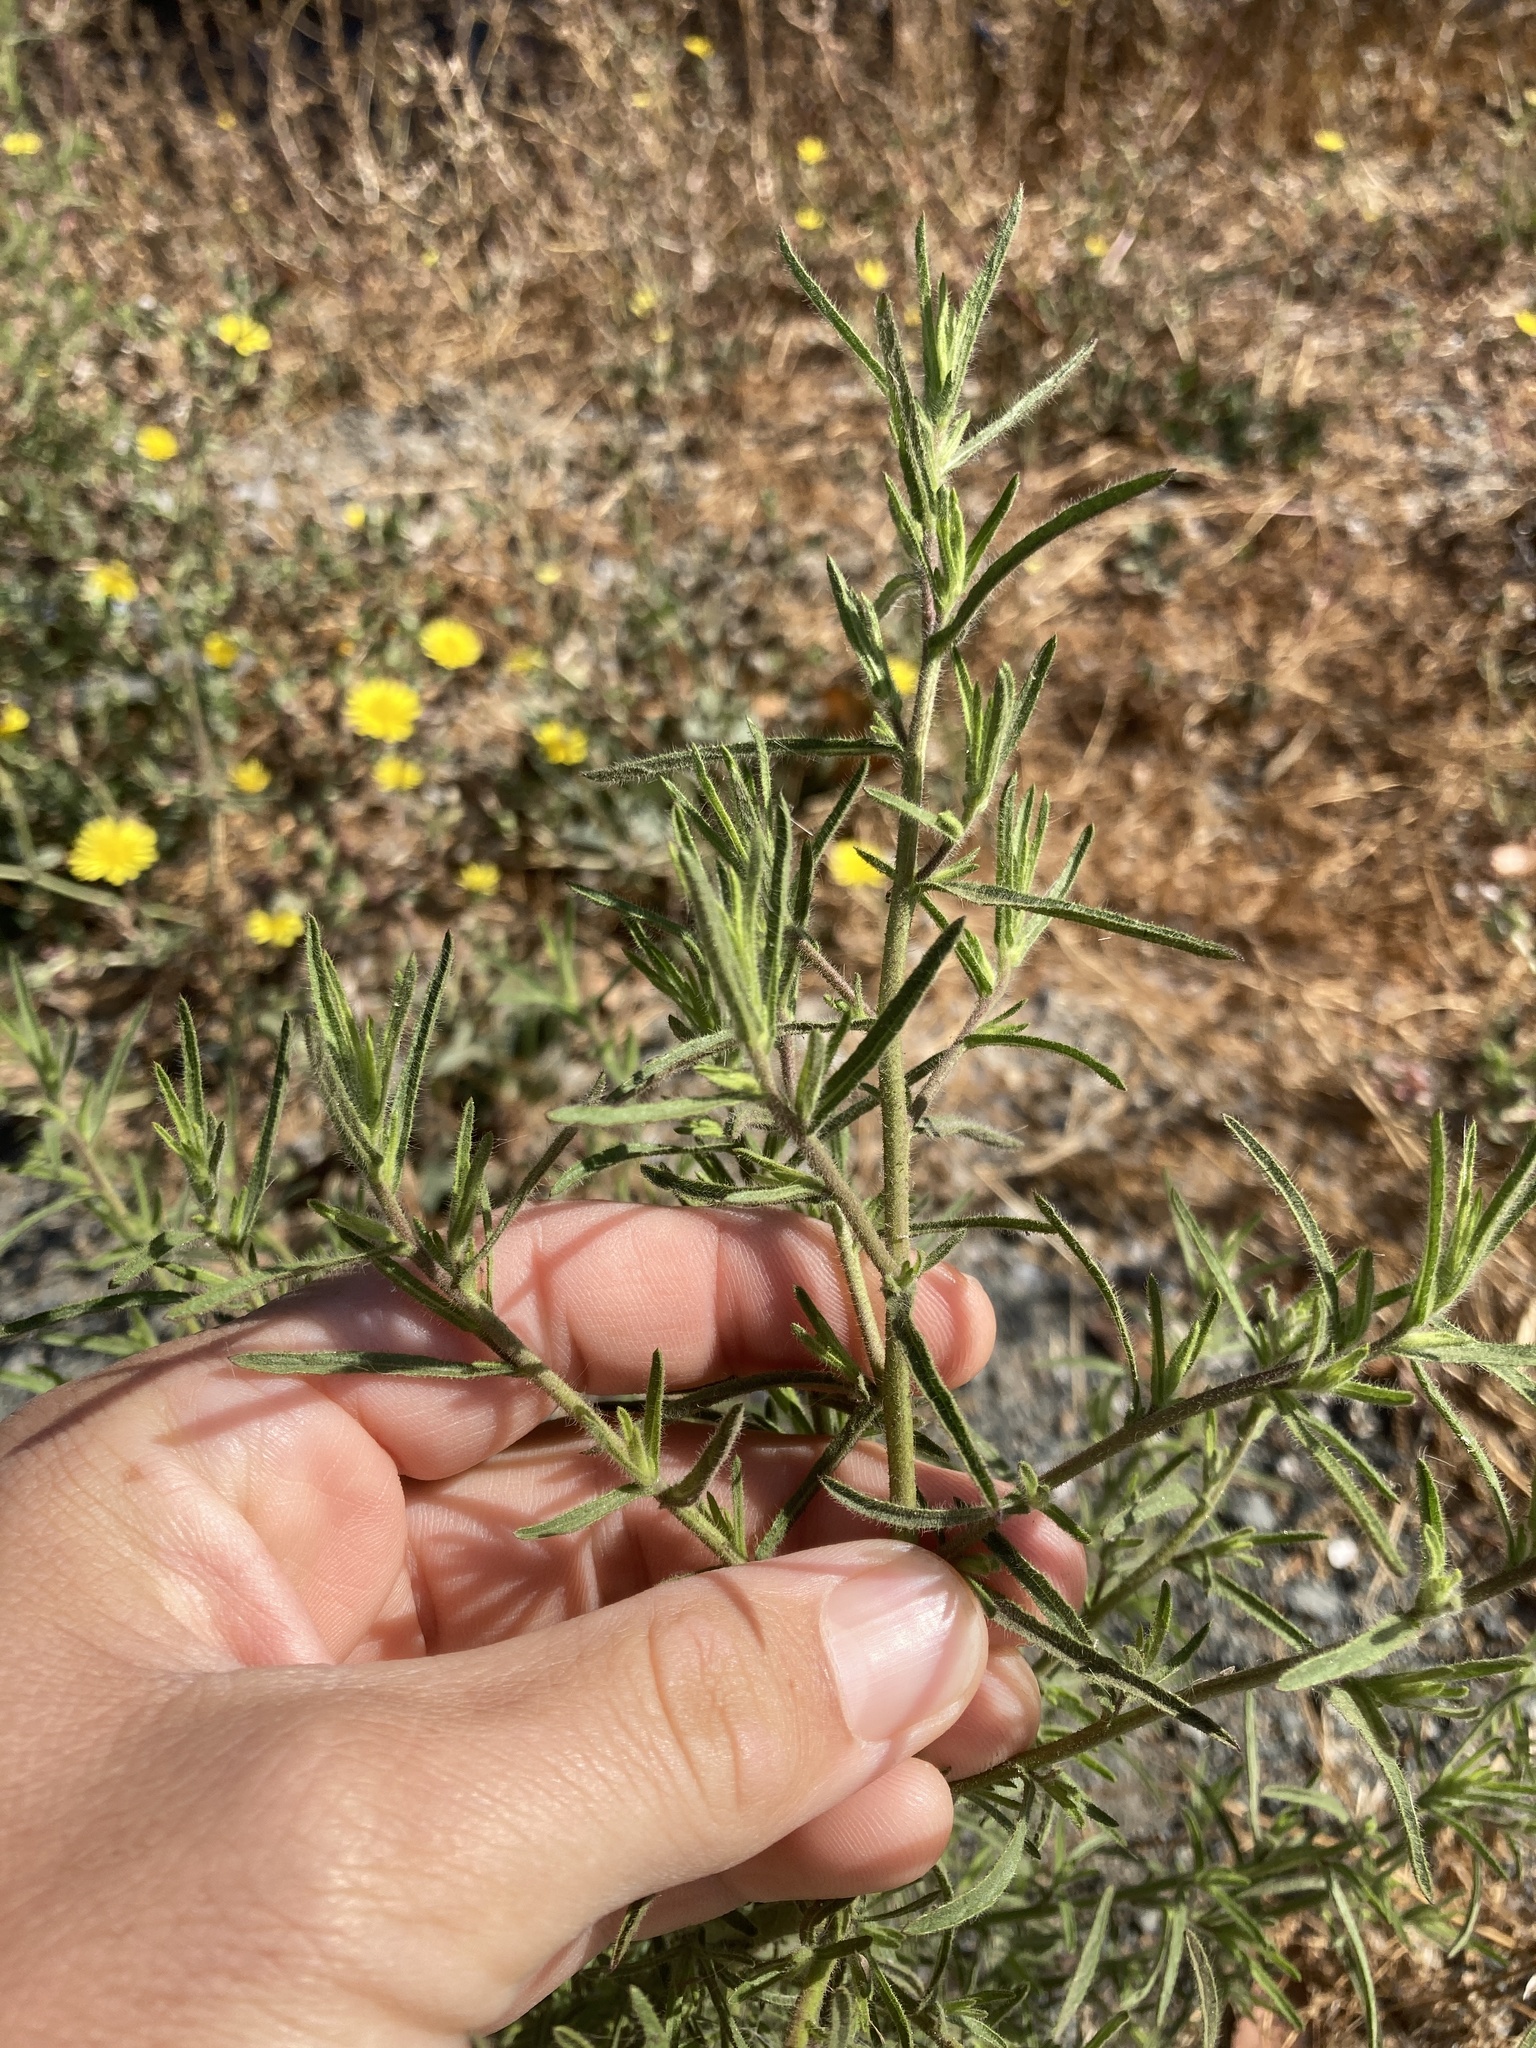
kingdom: Plantae
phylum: Tracheophyta
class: Magnoliopsida
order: Asterales
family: Asteraceae
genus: Dittrichia
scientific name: Dittrichia graveolens
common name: Stinking fleabane
